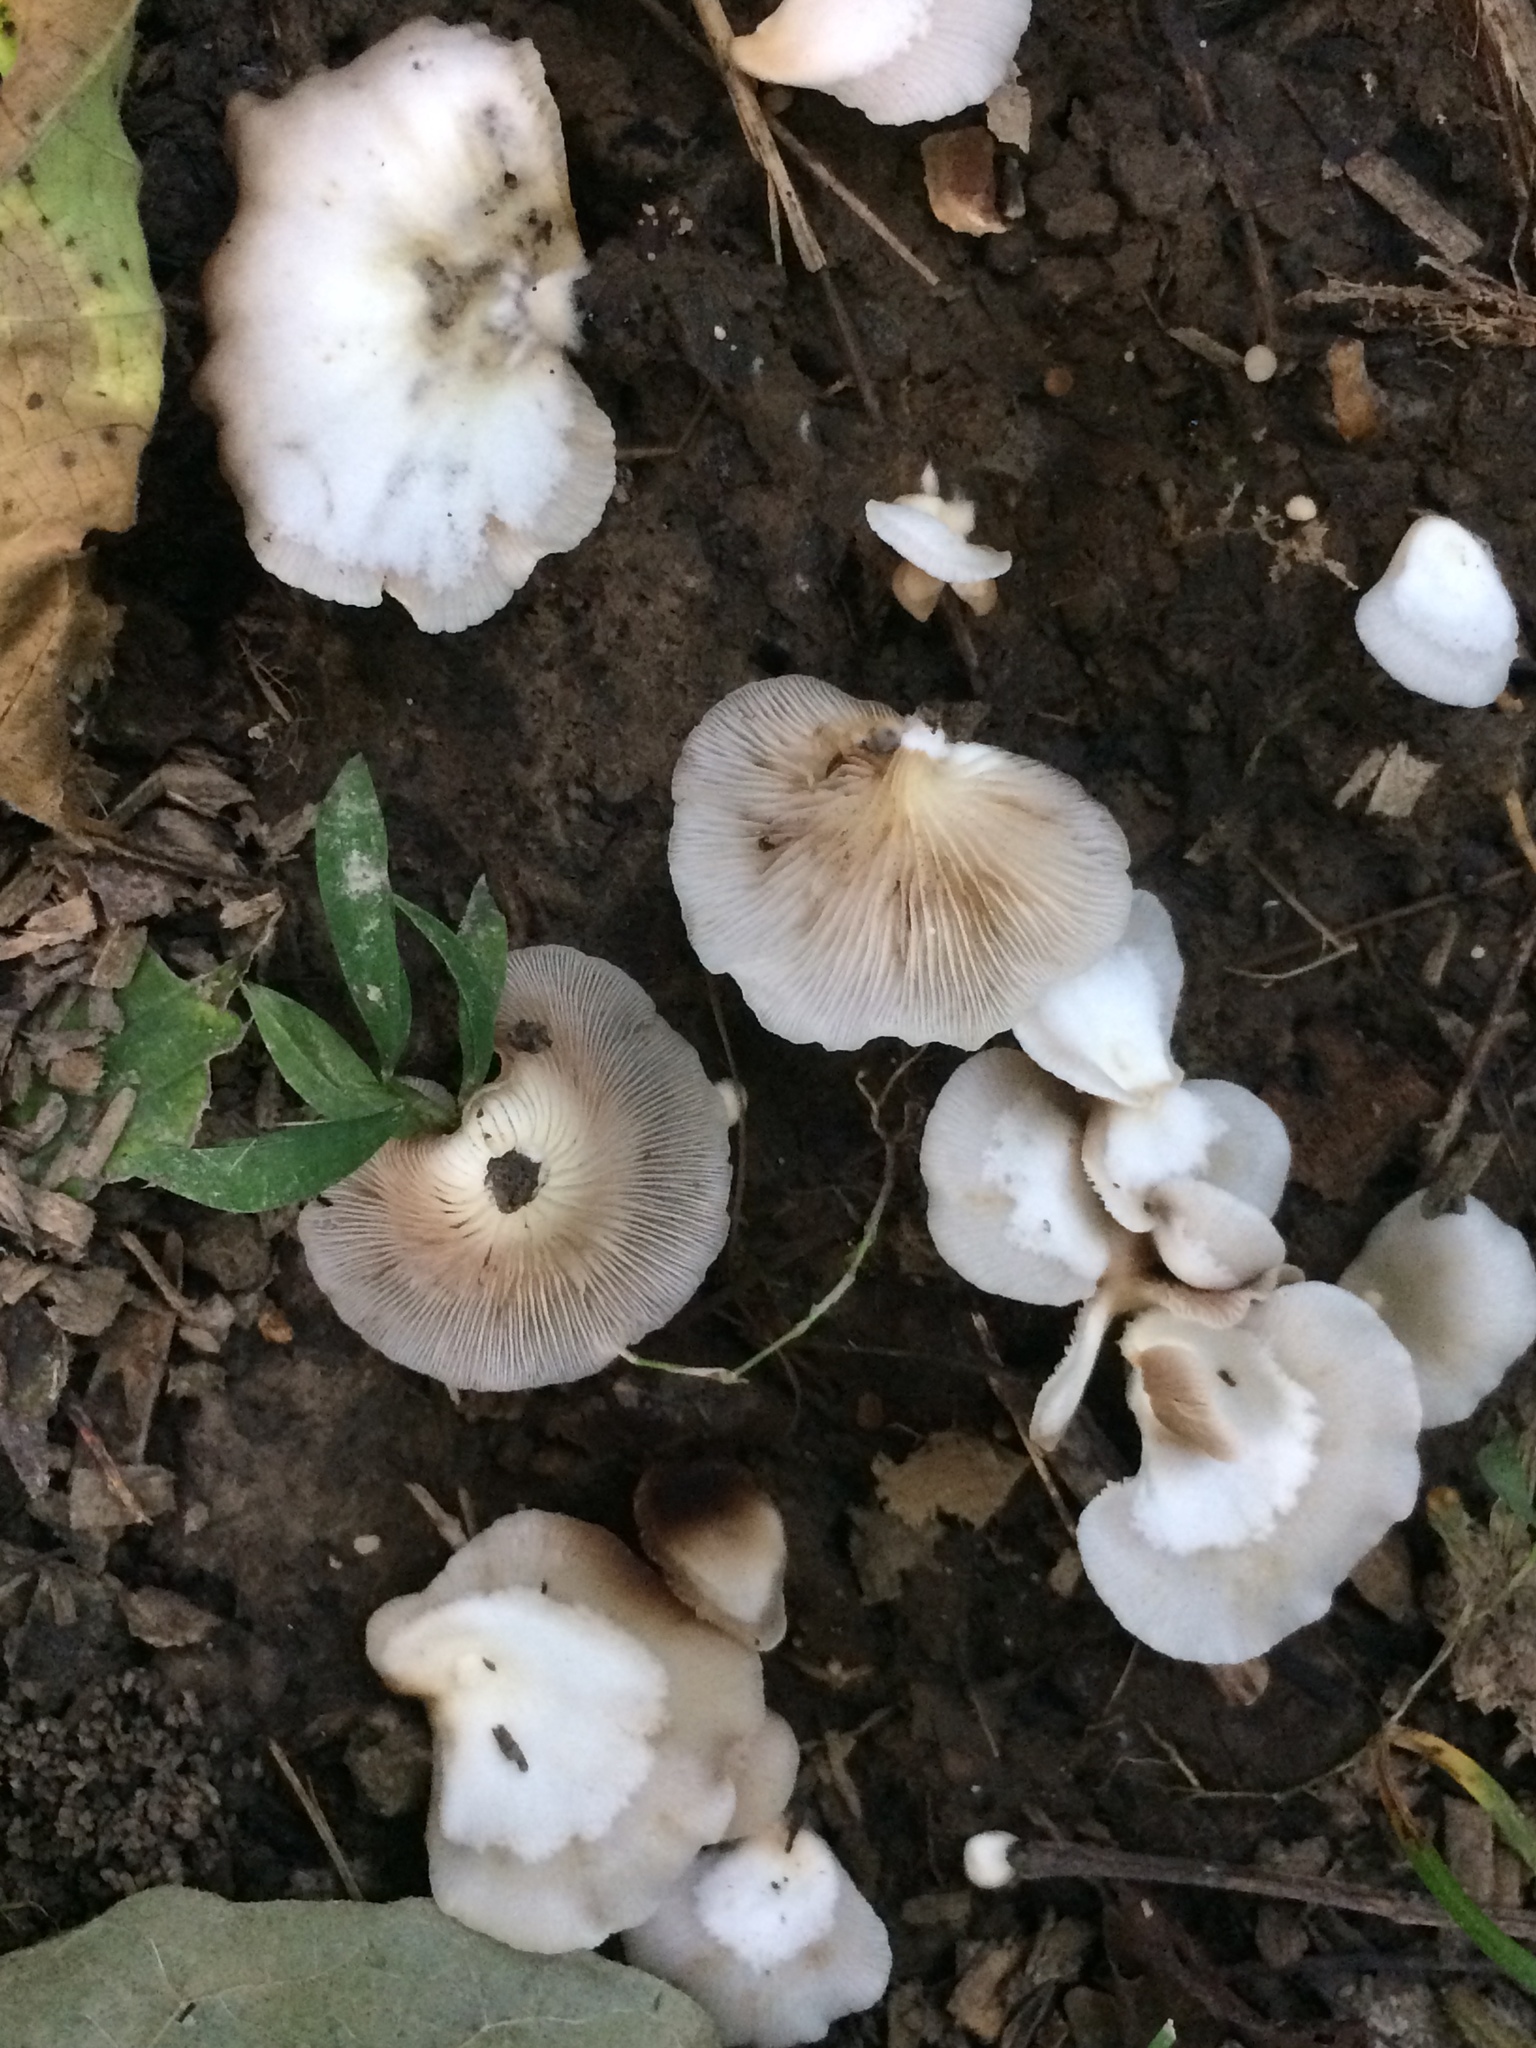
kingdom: Fungi
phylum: Basidiomycota
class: Agaricomycetes
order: Agaricales
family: Crepidotaceae
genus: Crepidotus
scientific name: Crepidotus alabamensis
